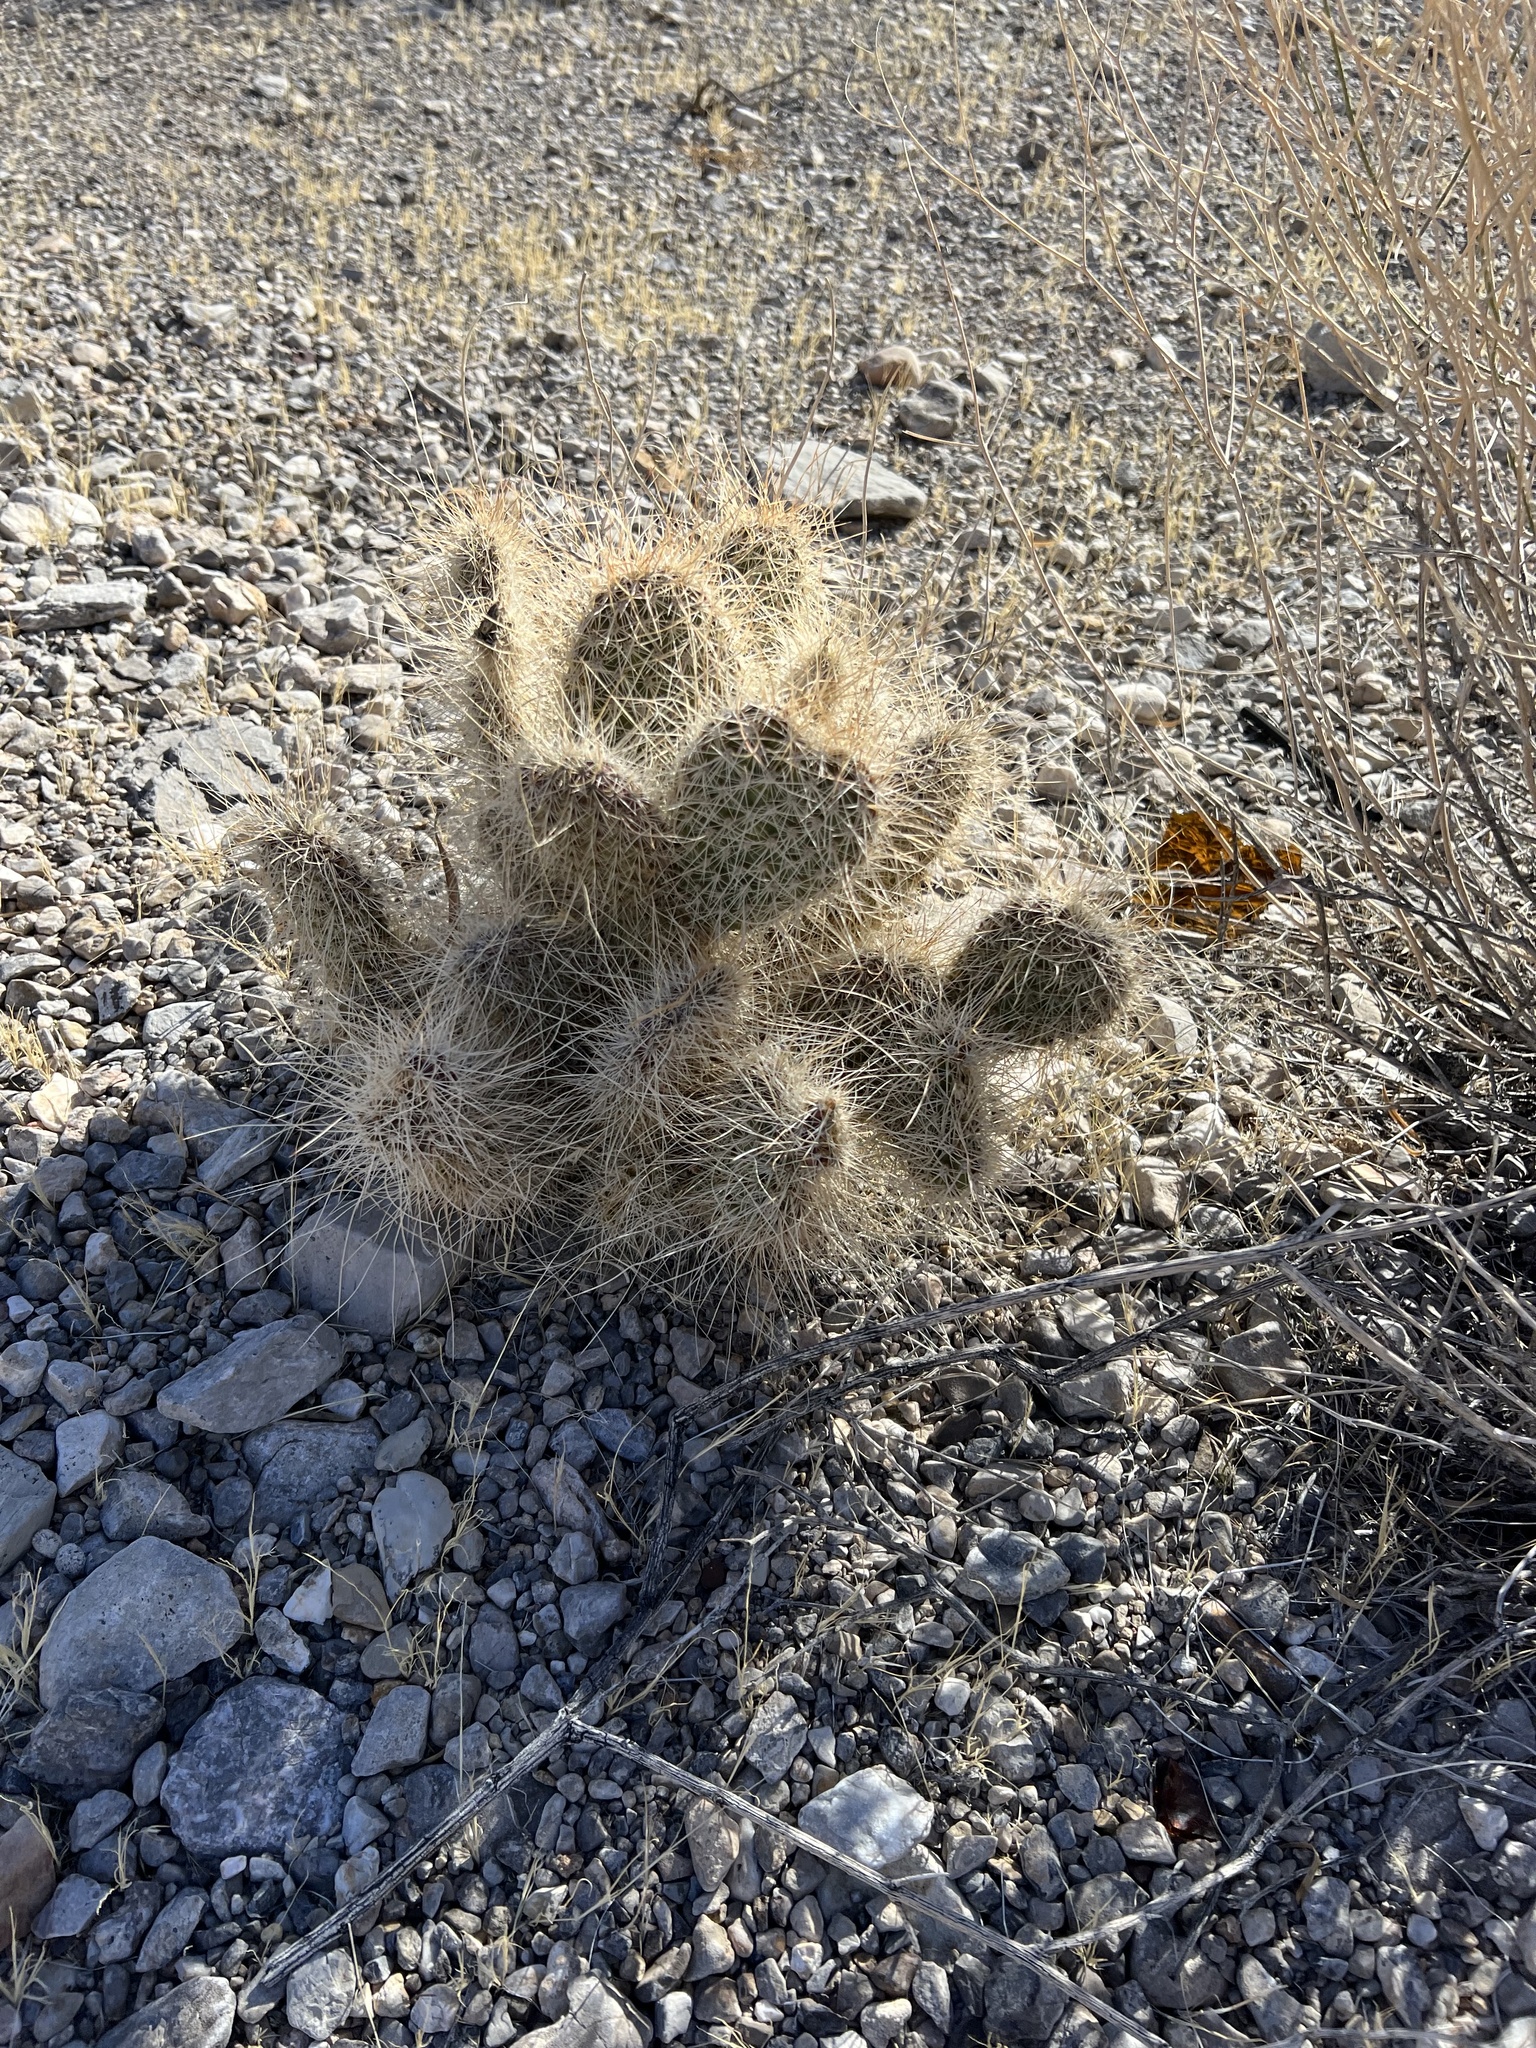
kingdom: Plantae
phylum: Tracheophyta
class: Magnoliopsida
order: Caryophyllales
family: Cactaceae
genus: Opuntia
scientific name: Opuntia polyacantha
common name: Plains prickly-pear
